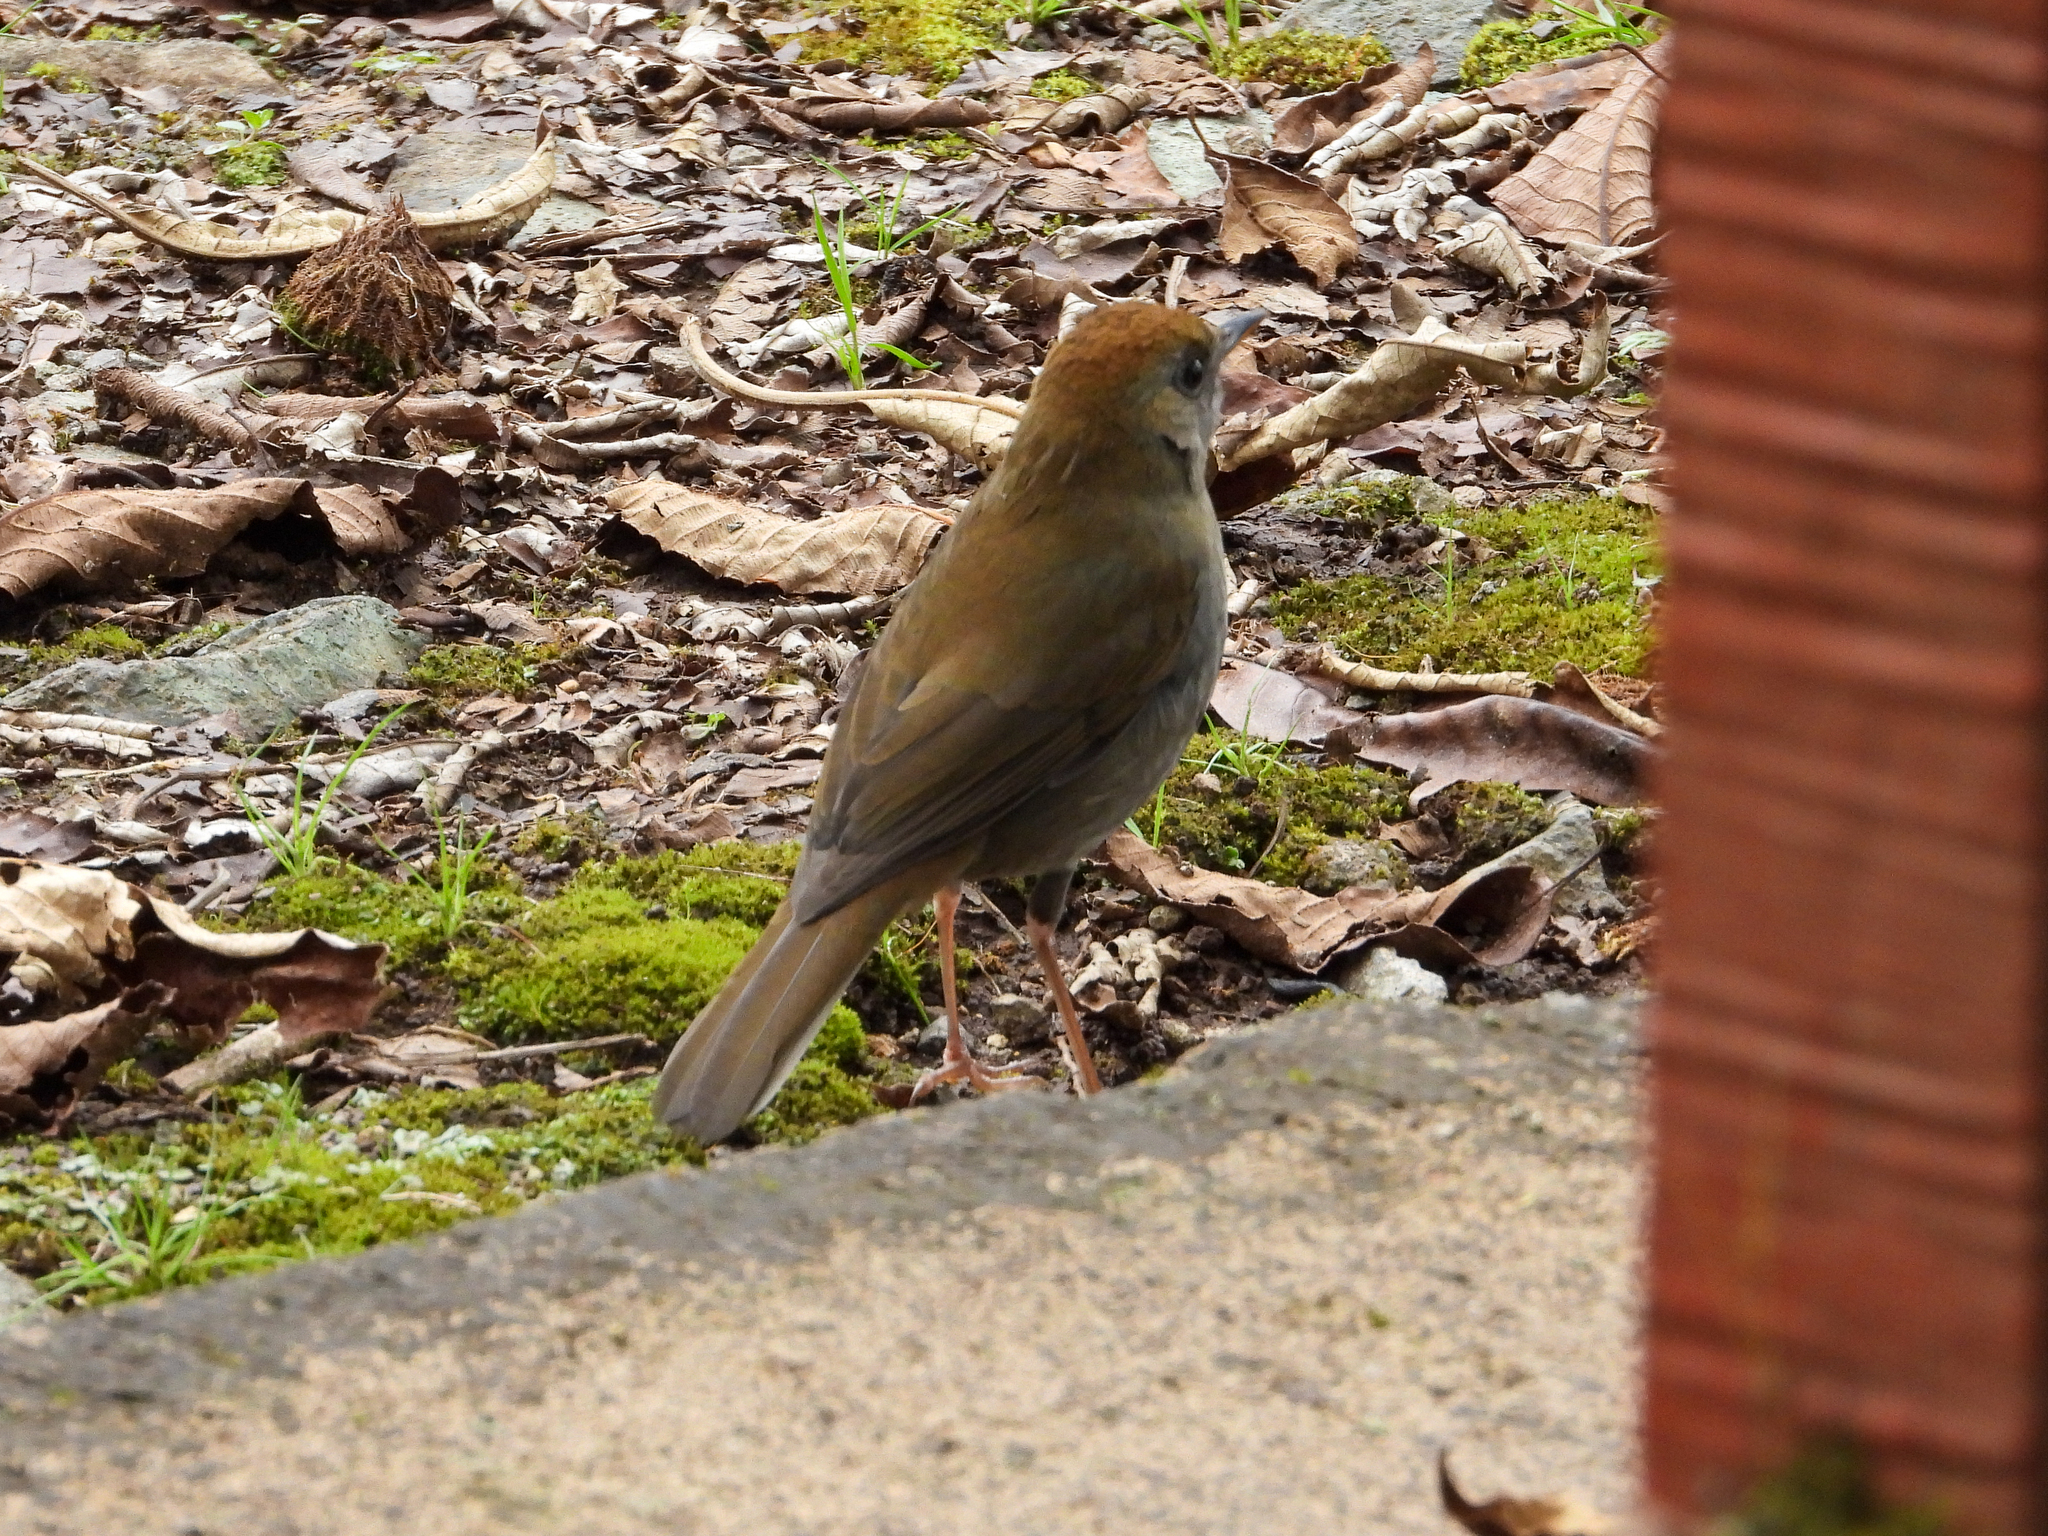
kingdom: Animalia
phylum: Chordata
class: Aves
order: Passeriformes
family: Turdidae
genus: Catharus
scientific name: Catharus frantzii
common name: Ruddy-capped nightingale-thrush
